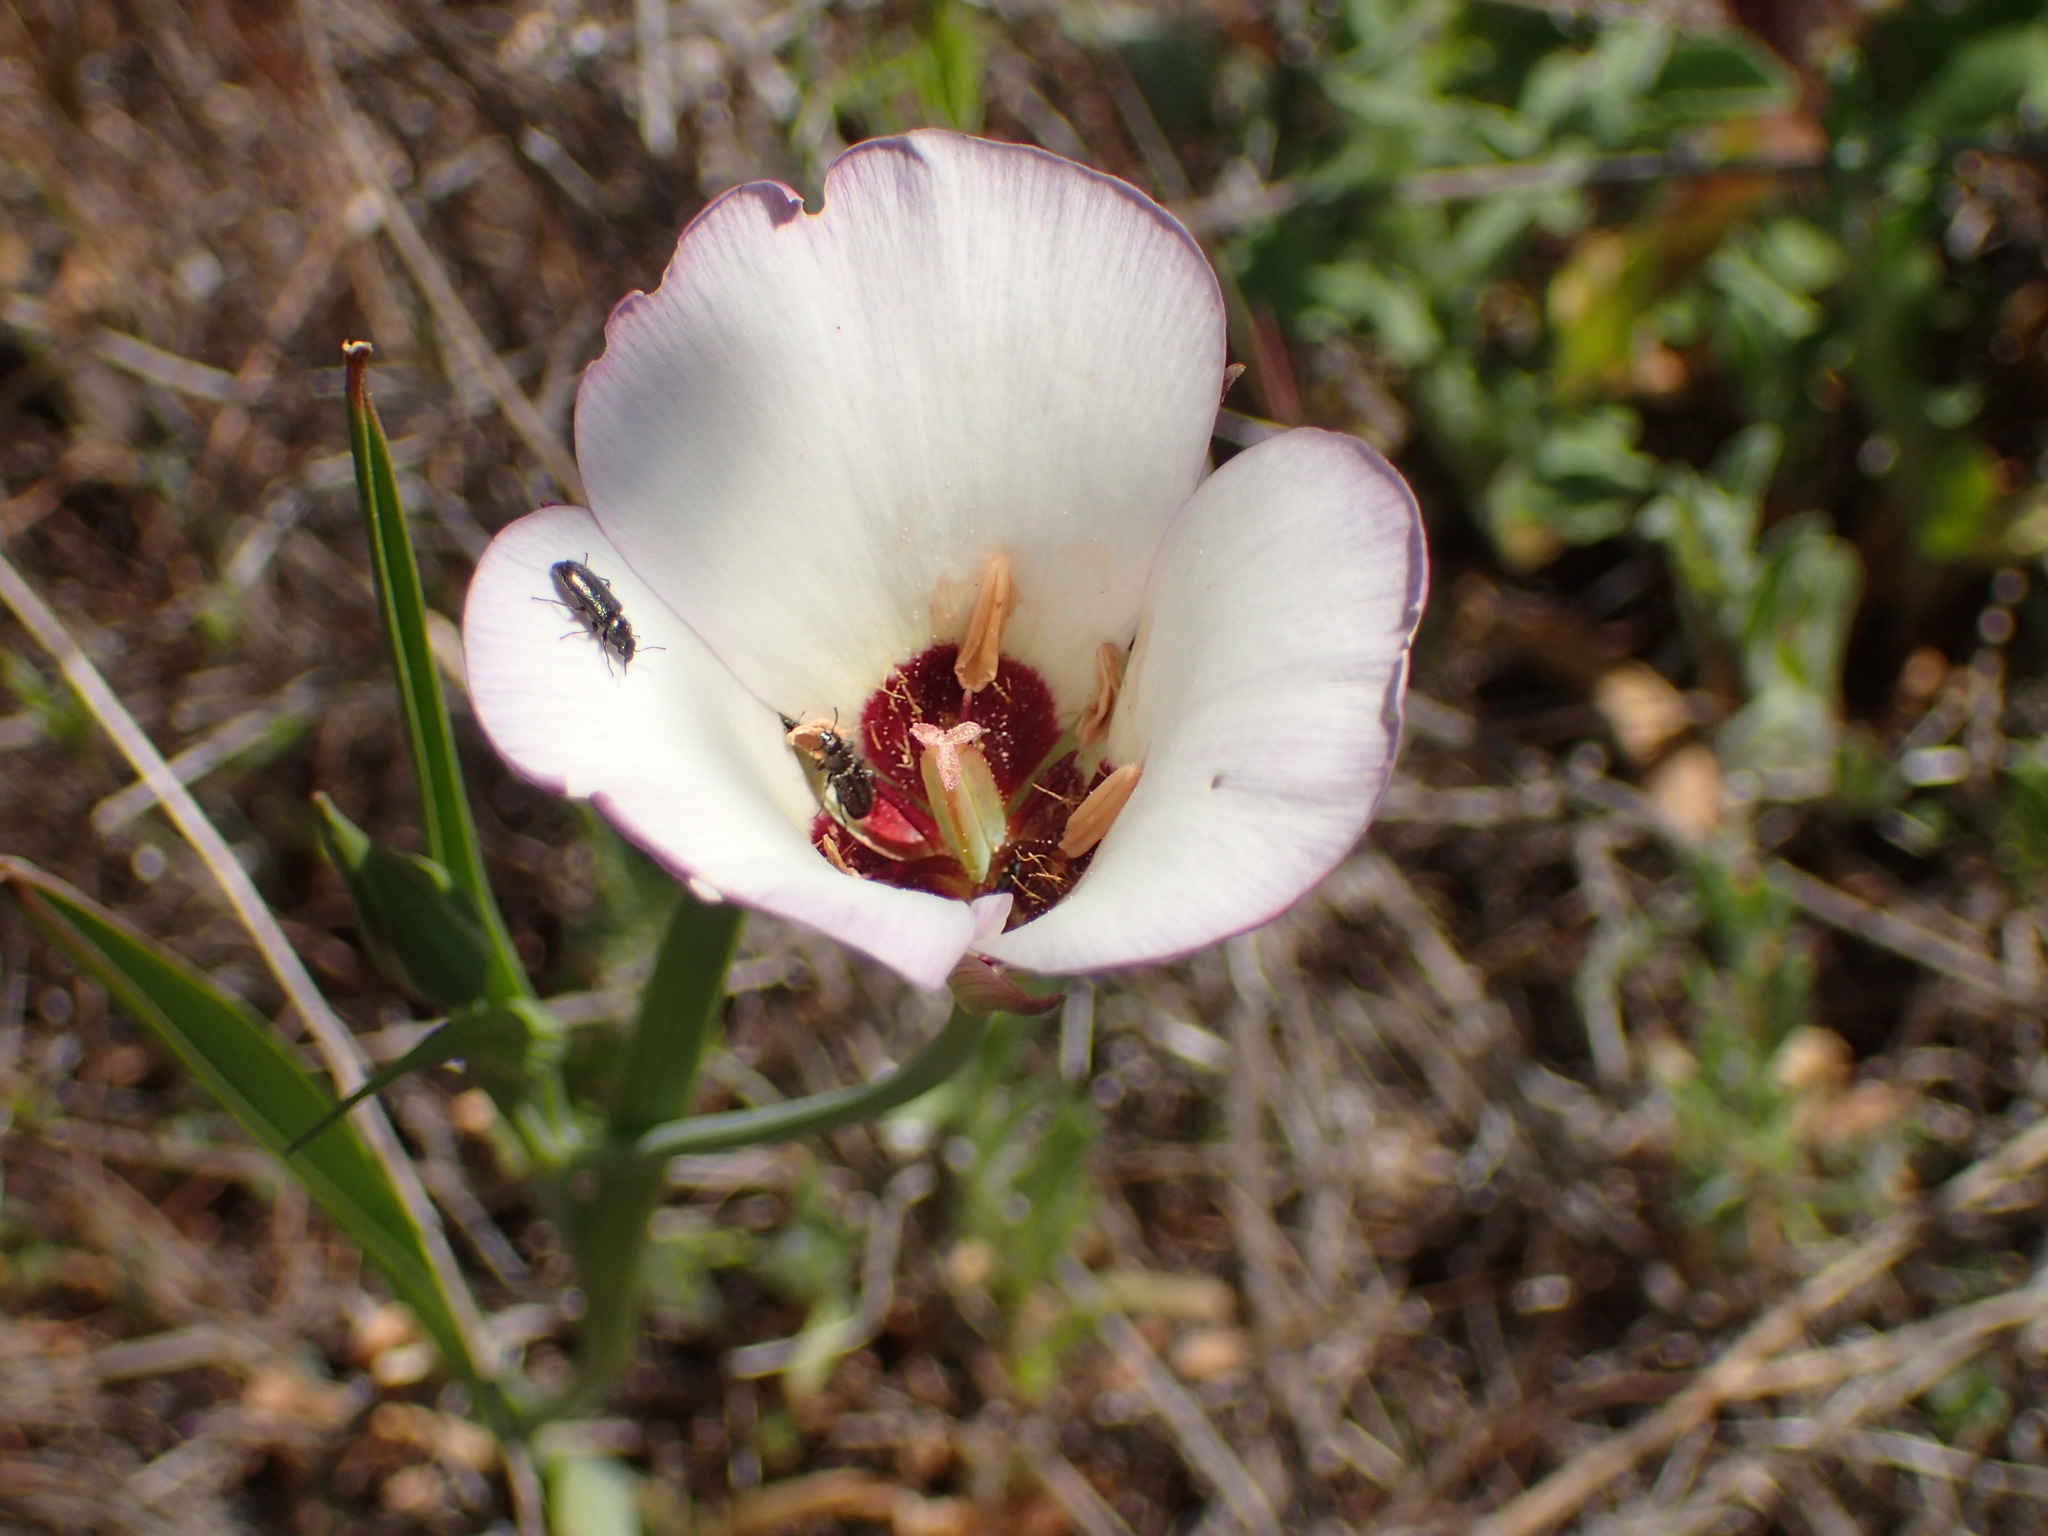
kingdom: Plantae
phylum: Tracheophyta
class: Liliopsida
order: Liliales
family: Liliaceae
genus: Calochortus
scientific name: Calochortus catalinae
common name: Catalina mariposa-lily
